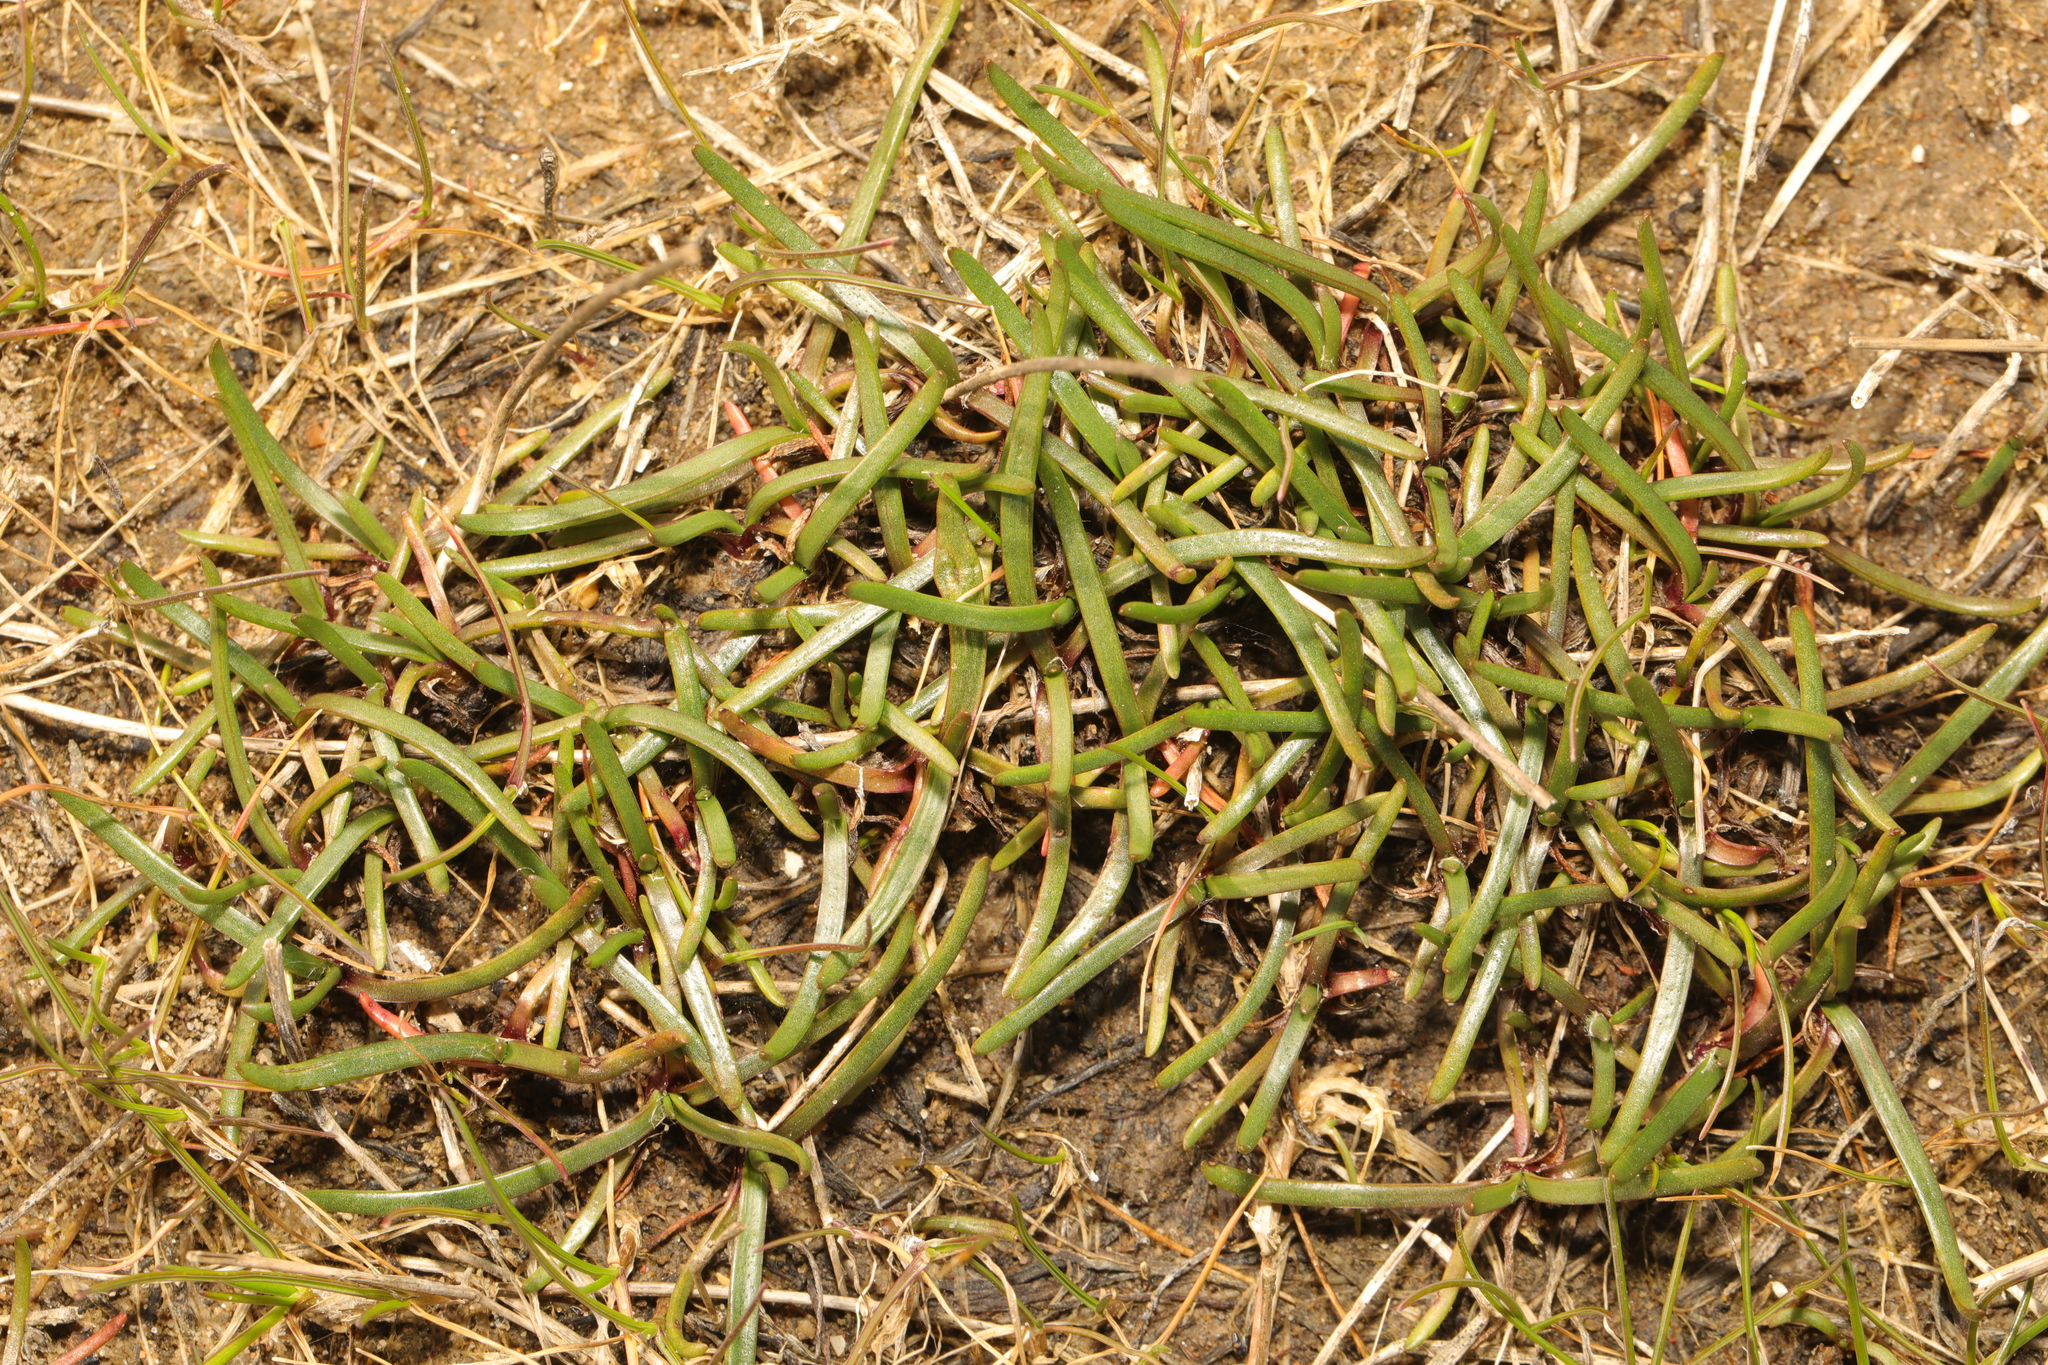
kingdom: Plantae
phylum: Tracheophyta
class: Magnoliopsida
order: Lamiales
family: Plantaginaceae
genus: Plantago
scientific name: Plantago maritima
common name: Sea plantain
